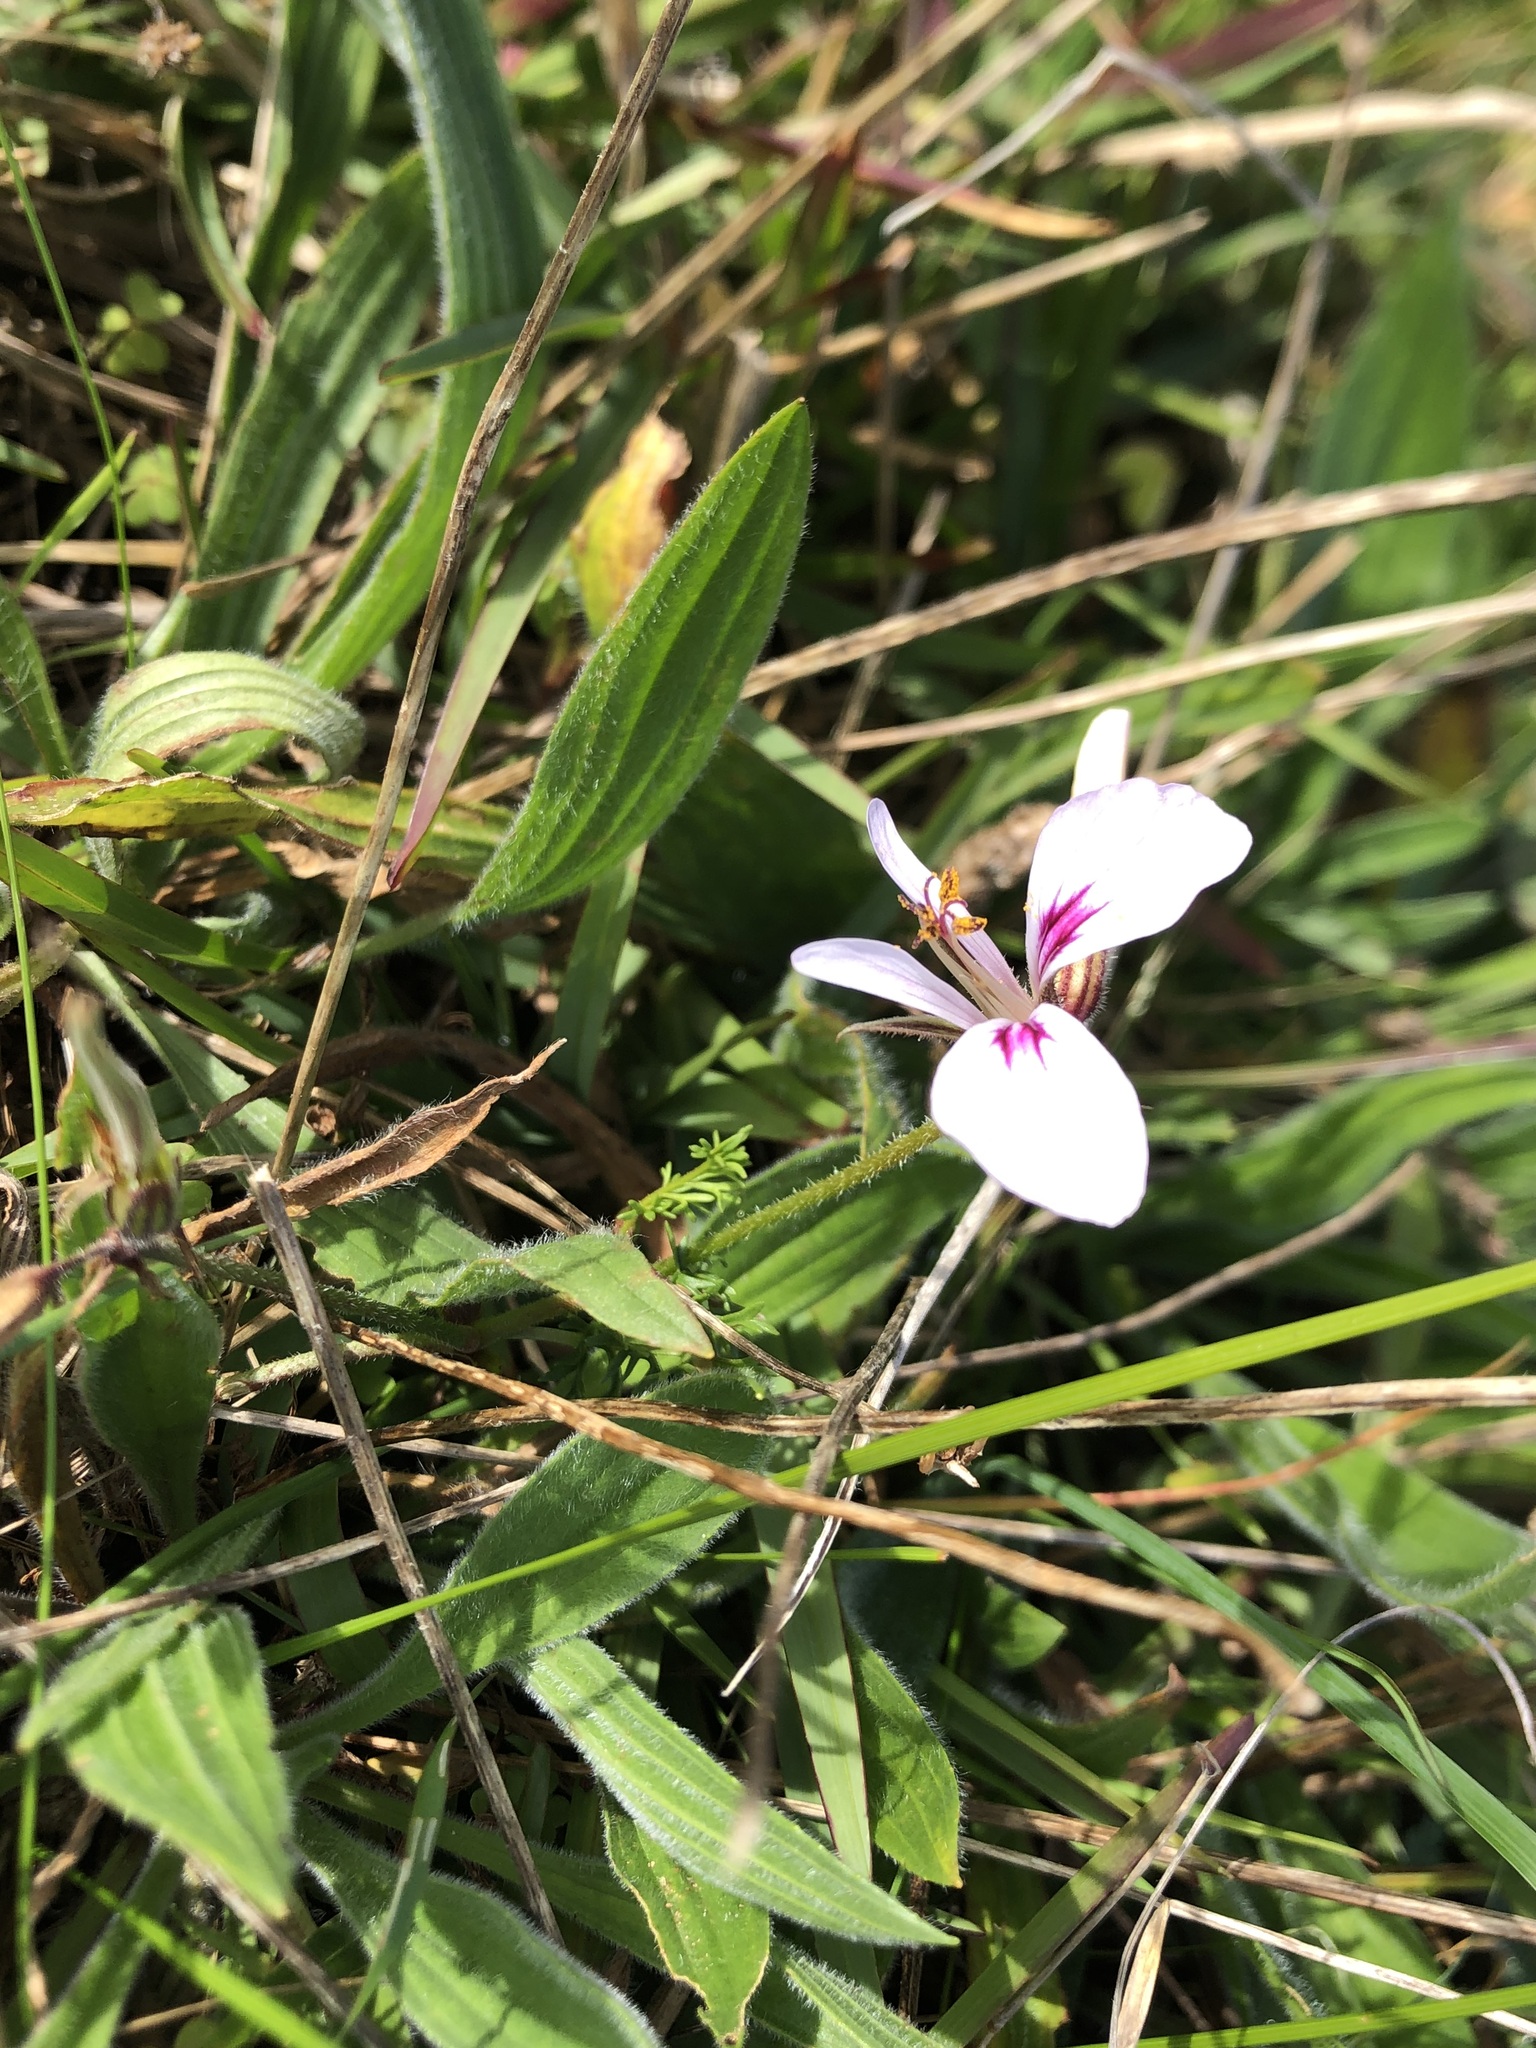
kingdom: Plantae
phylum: Tracheophyta
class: Magnoliopsida
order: Geraniales
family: Geraniaceae
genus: Pelargonium
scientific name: Pelargonium myrrhifolium
